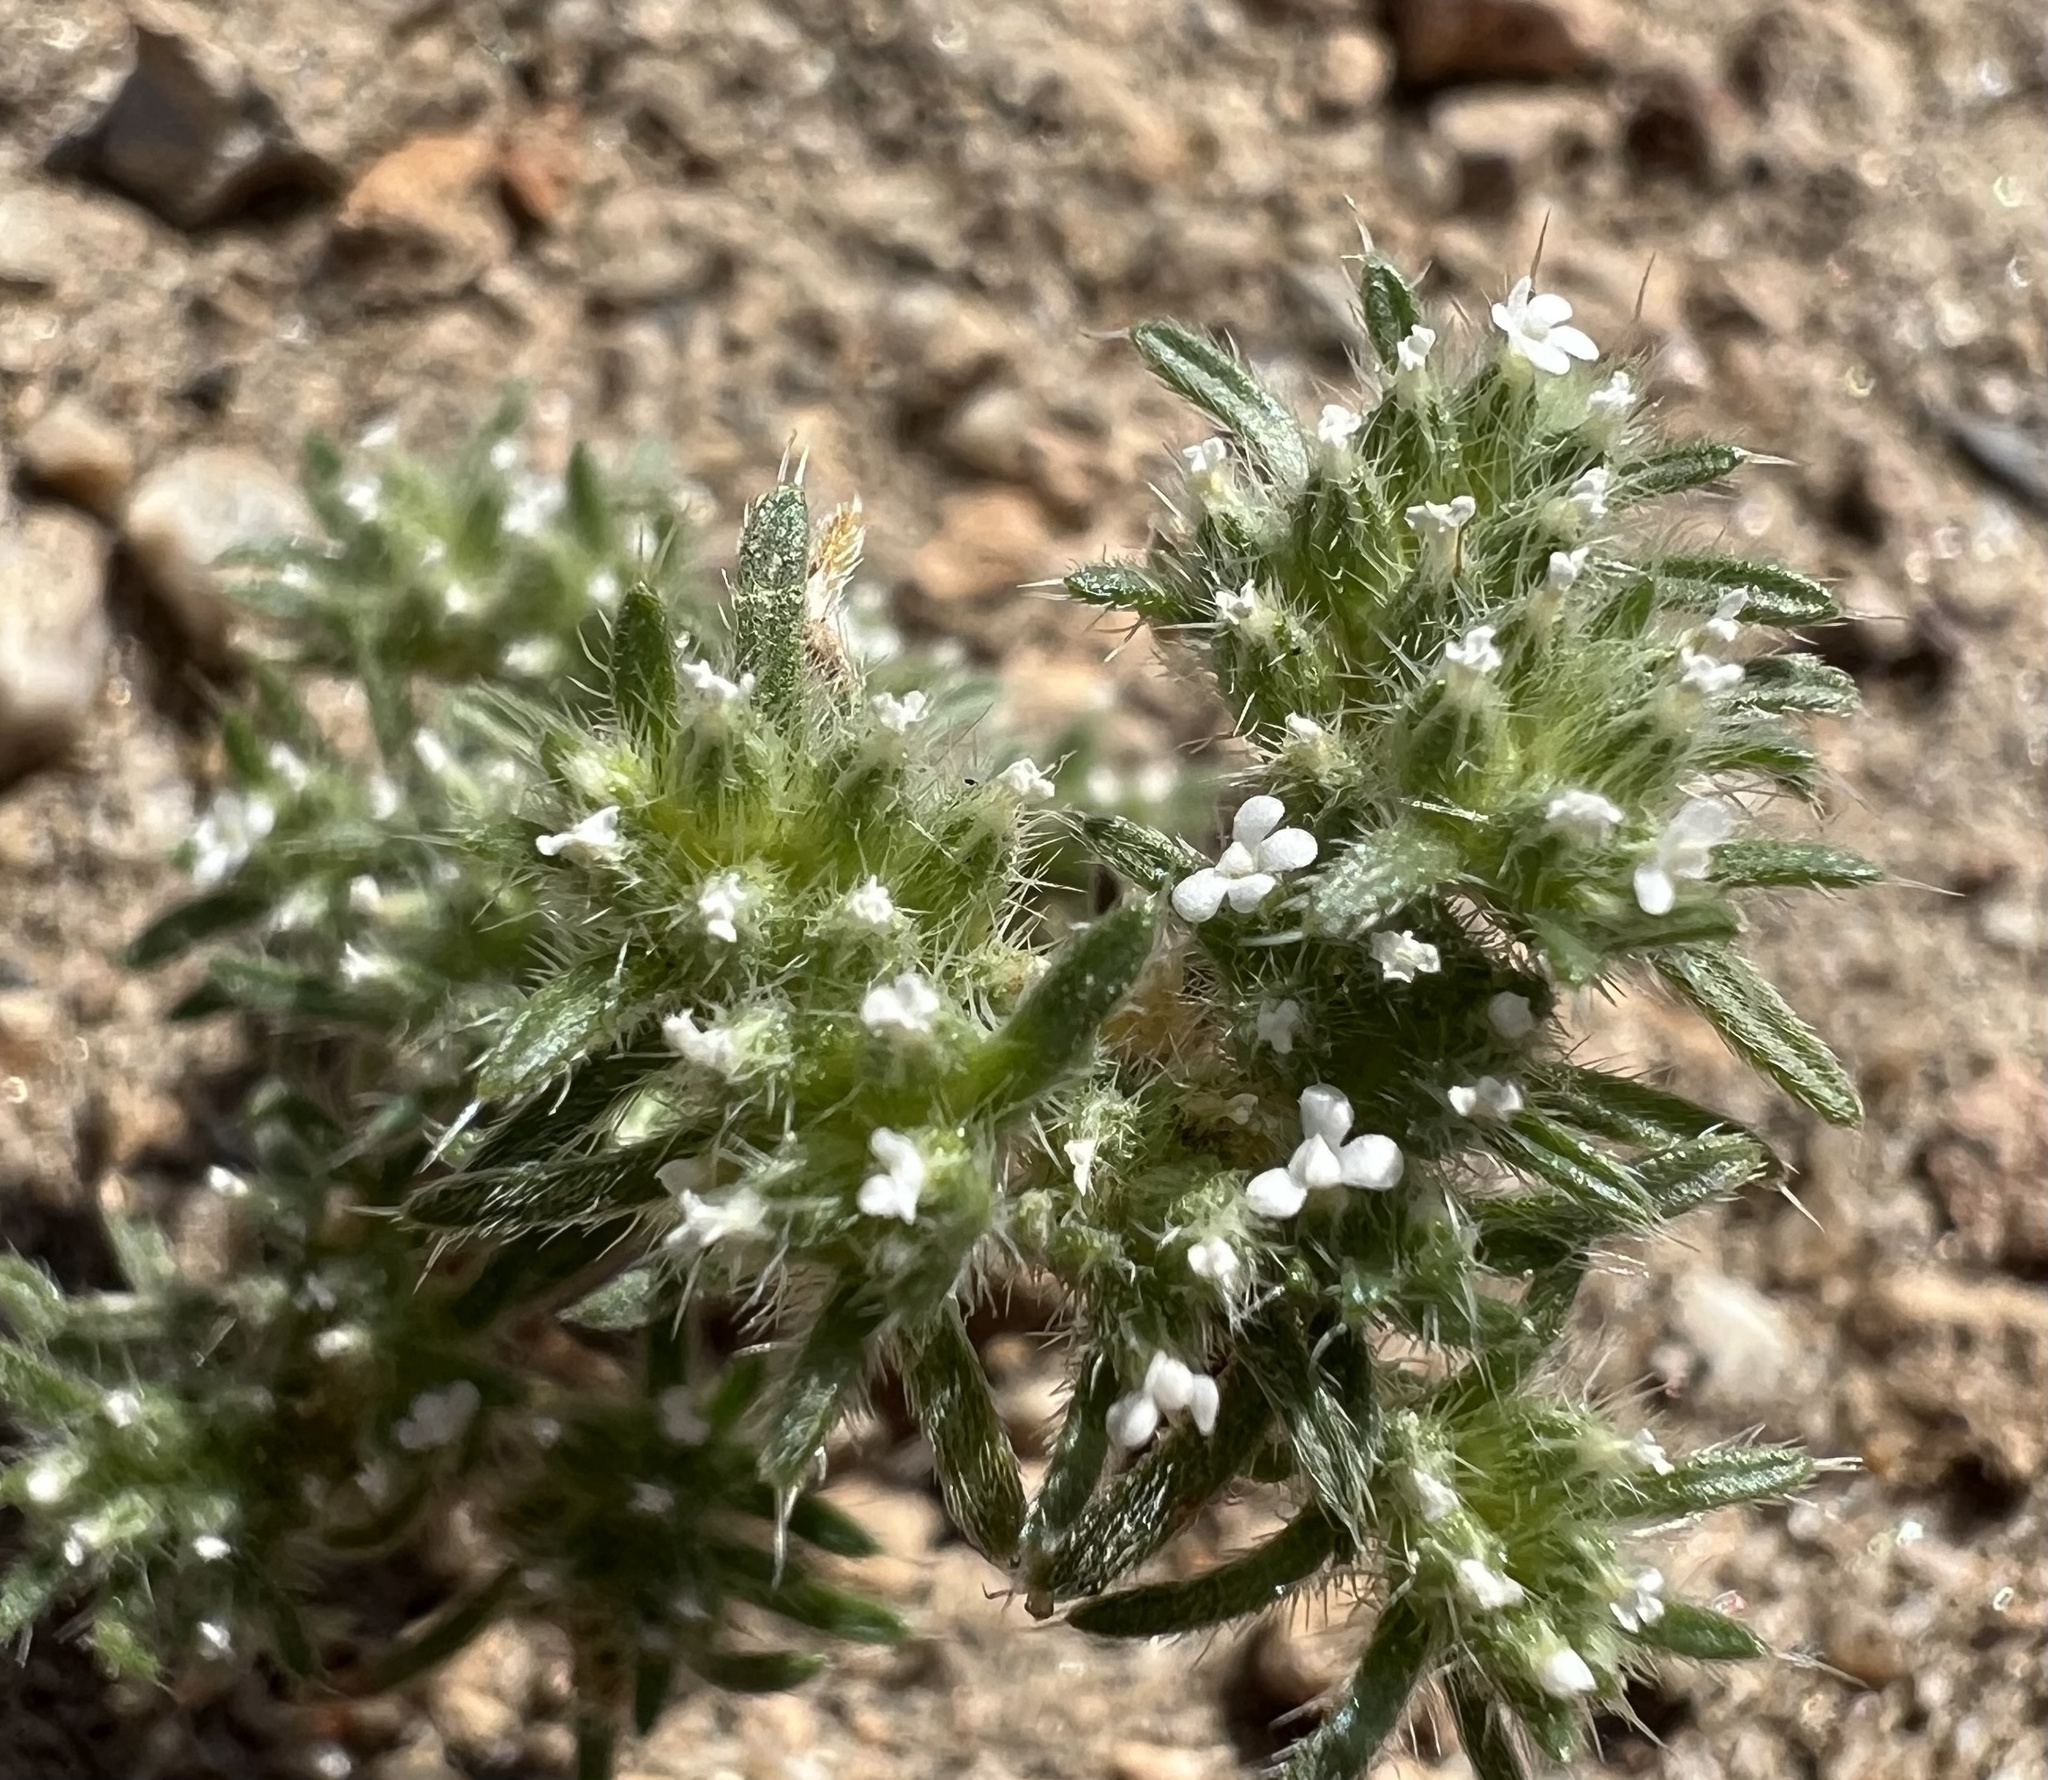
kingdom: Plantae
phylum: Tracheophyta
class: Magnoliopsida
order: Boraginales
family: Boraginaceae
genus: Greeneocharis
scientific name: Greeneocharis circumscissa
